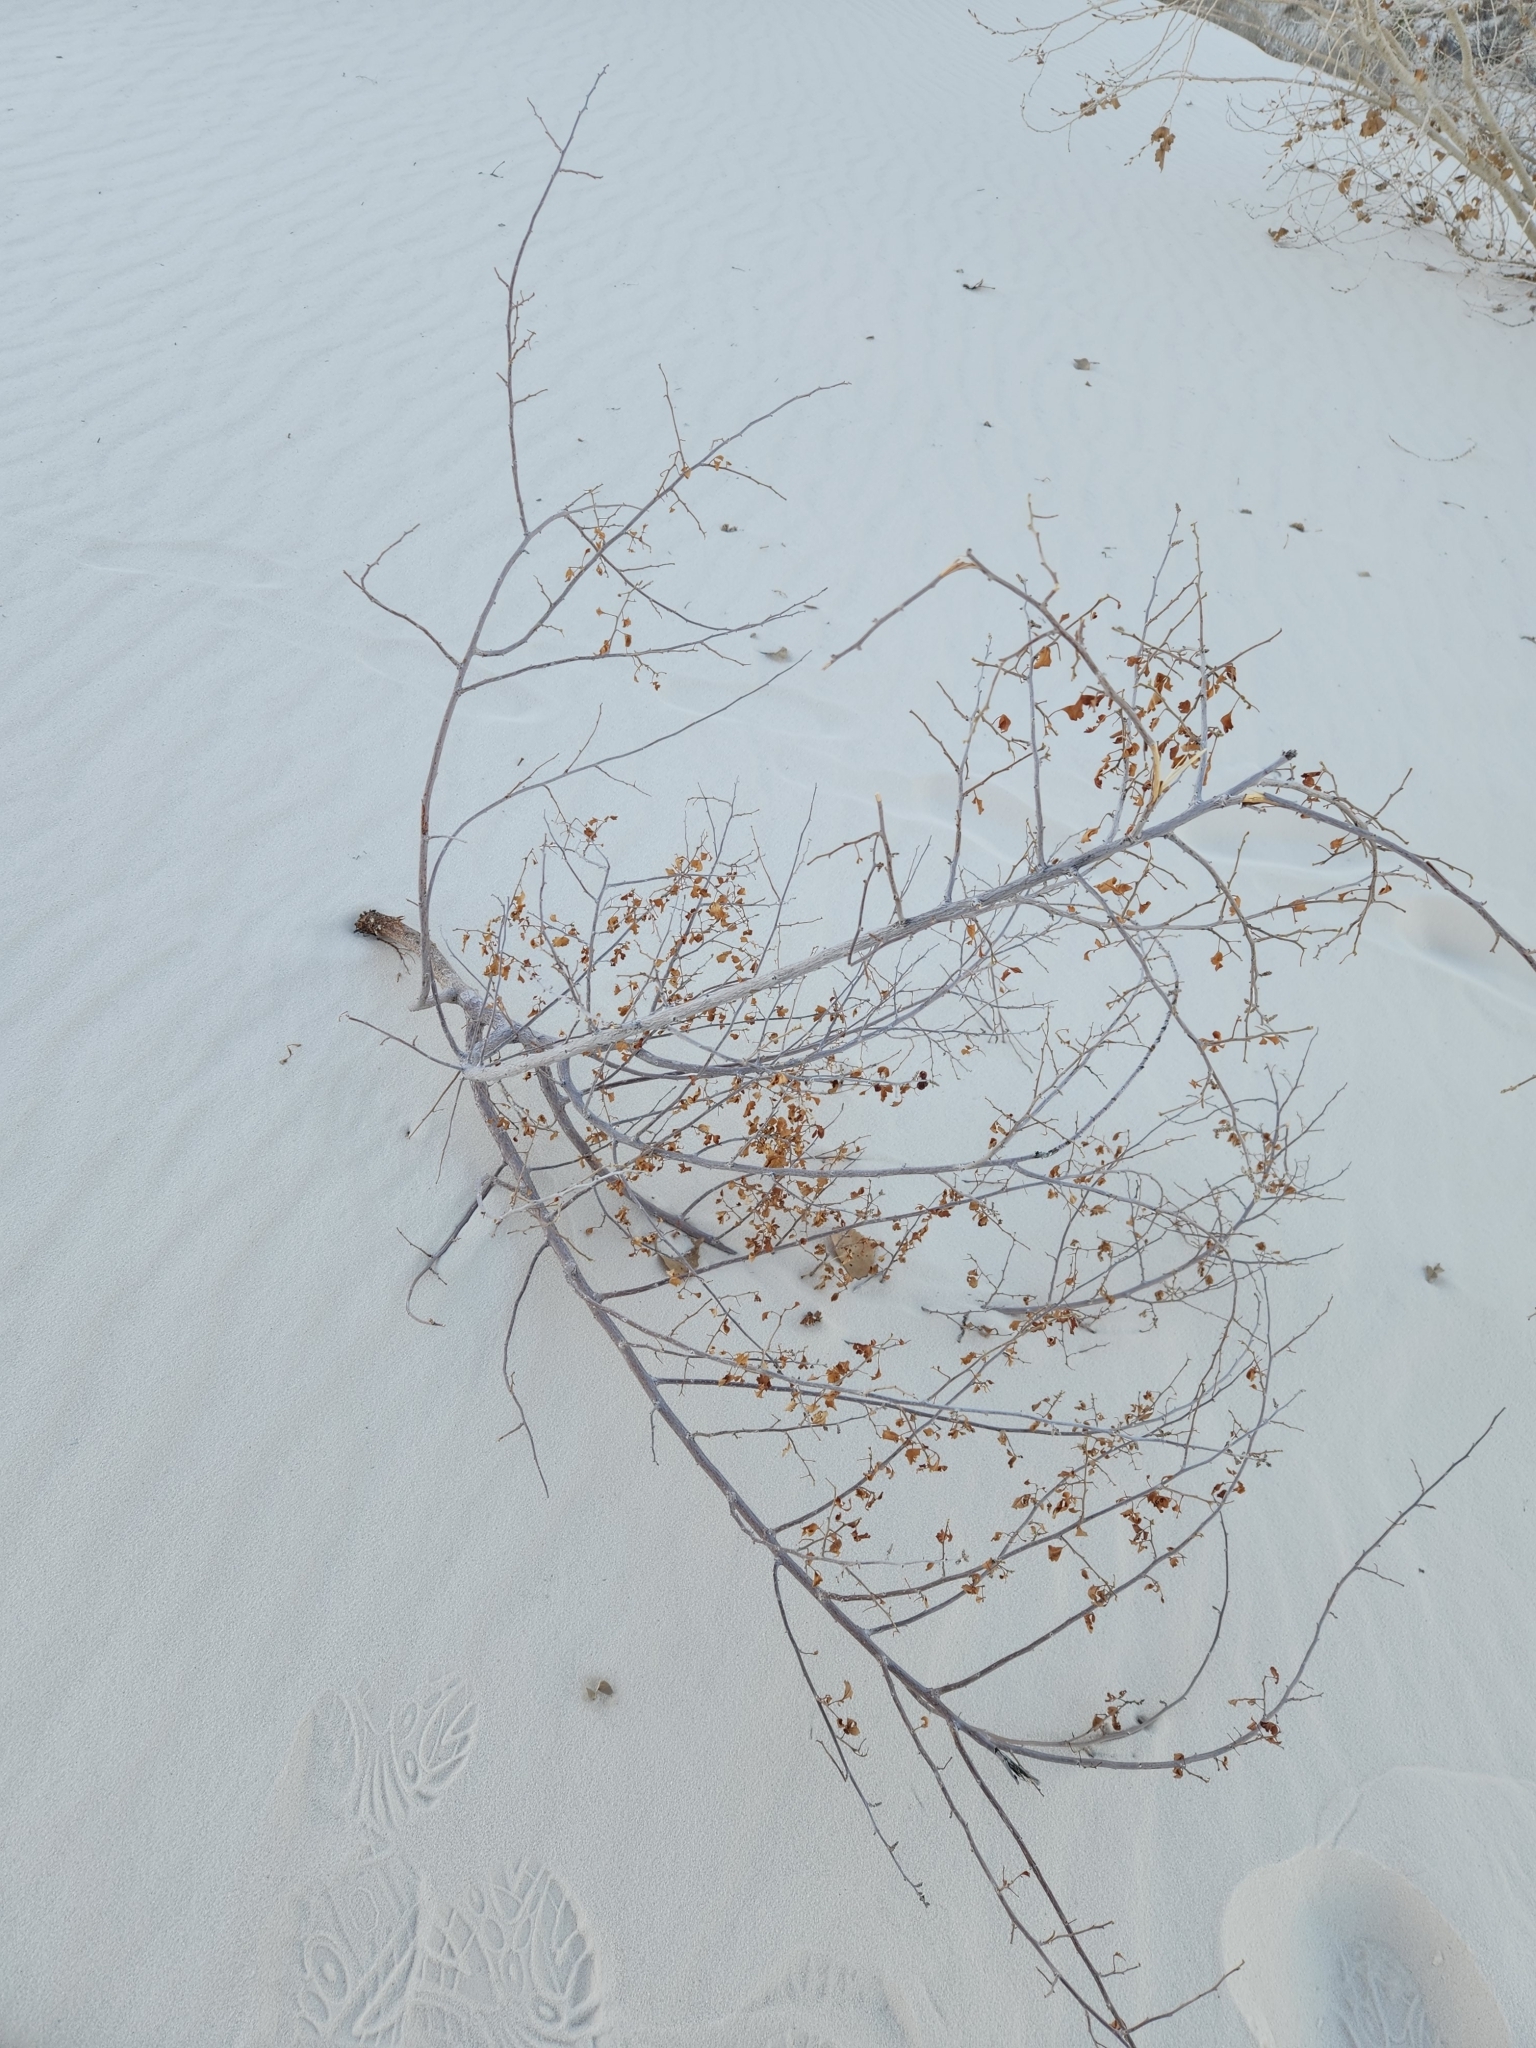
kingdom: Plantae
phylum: Tracheophyta
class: Magnoliopsida
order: Sapindales
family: Anacardiaceae
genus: Rhus
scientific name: Rhus trilobata
